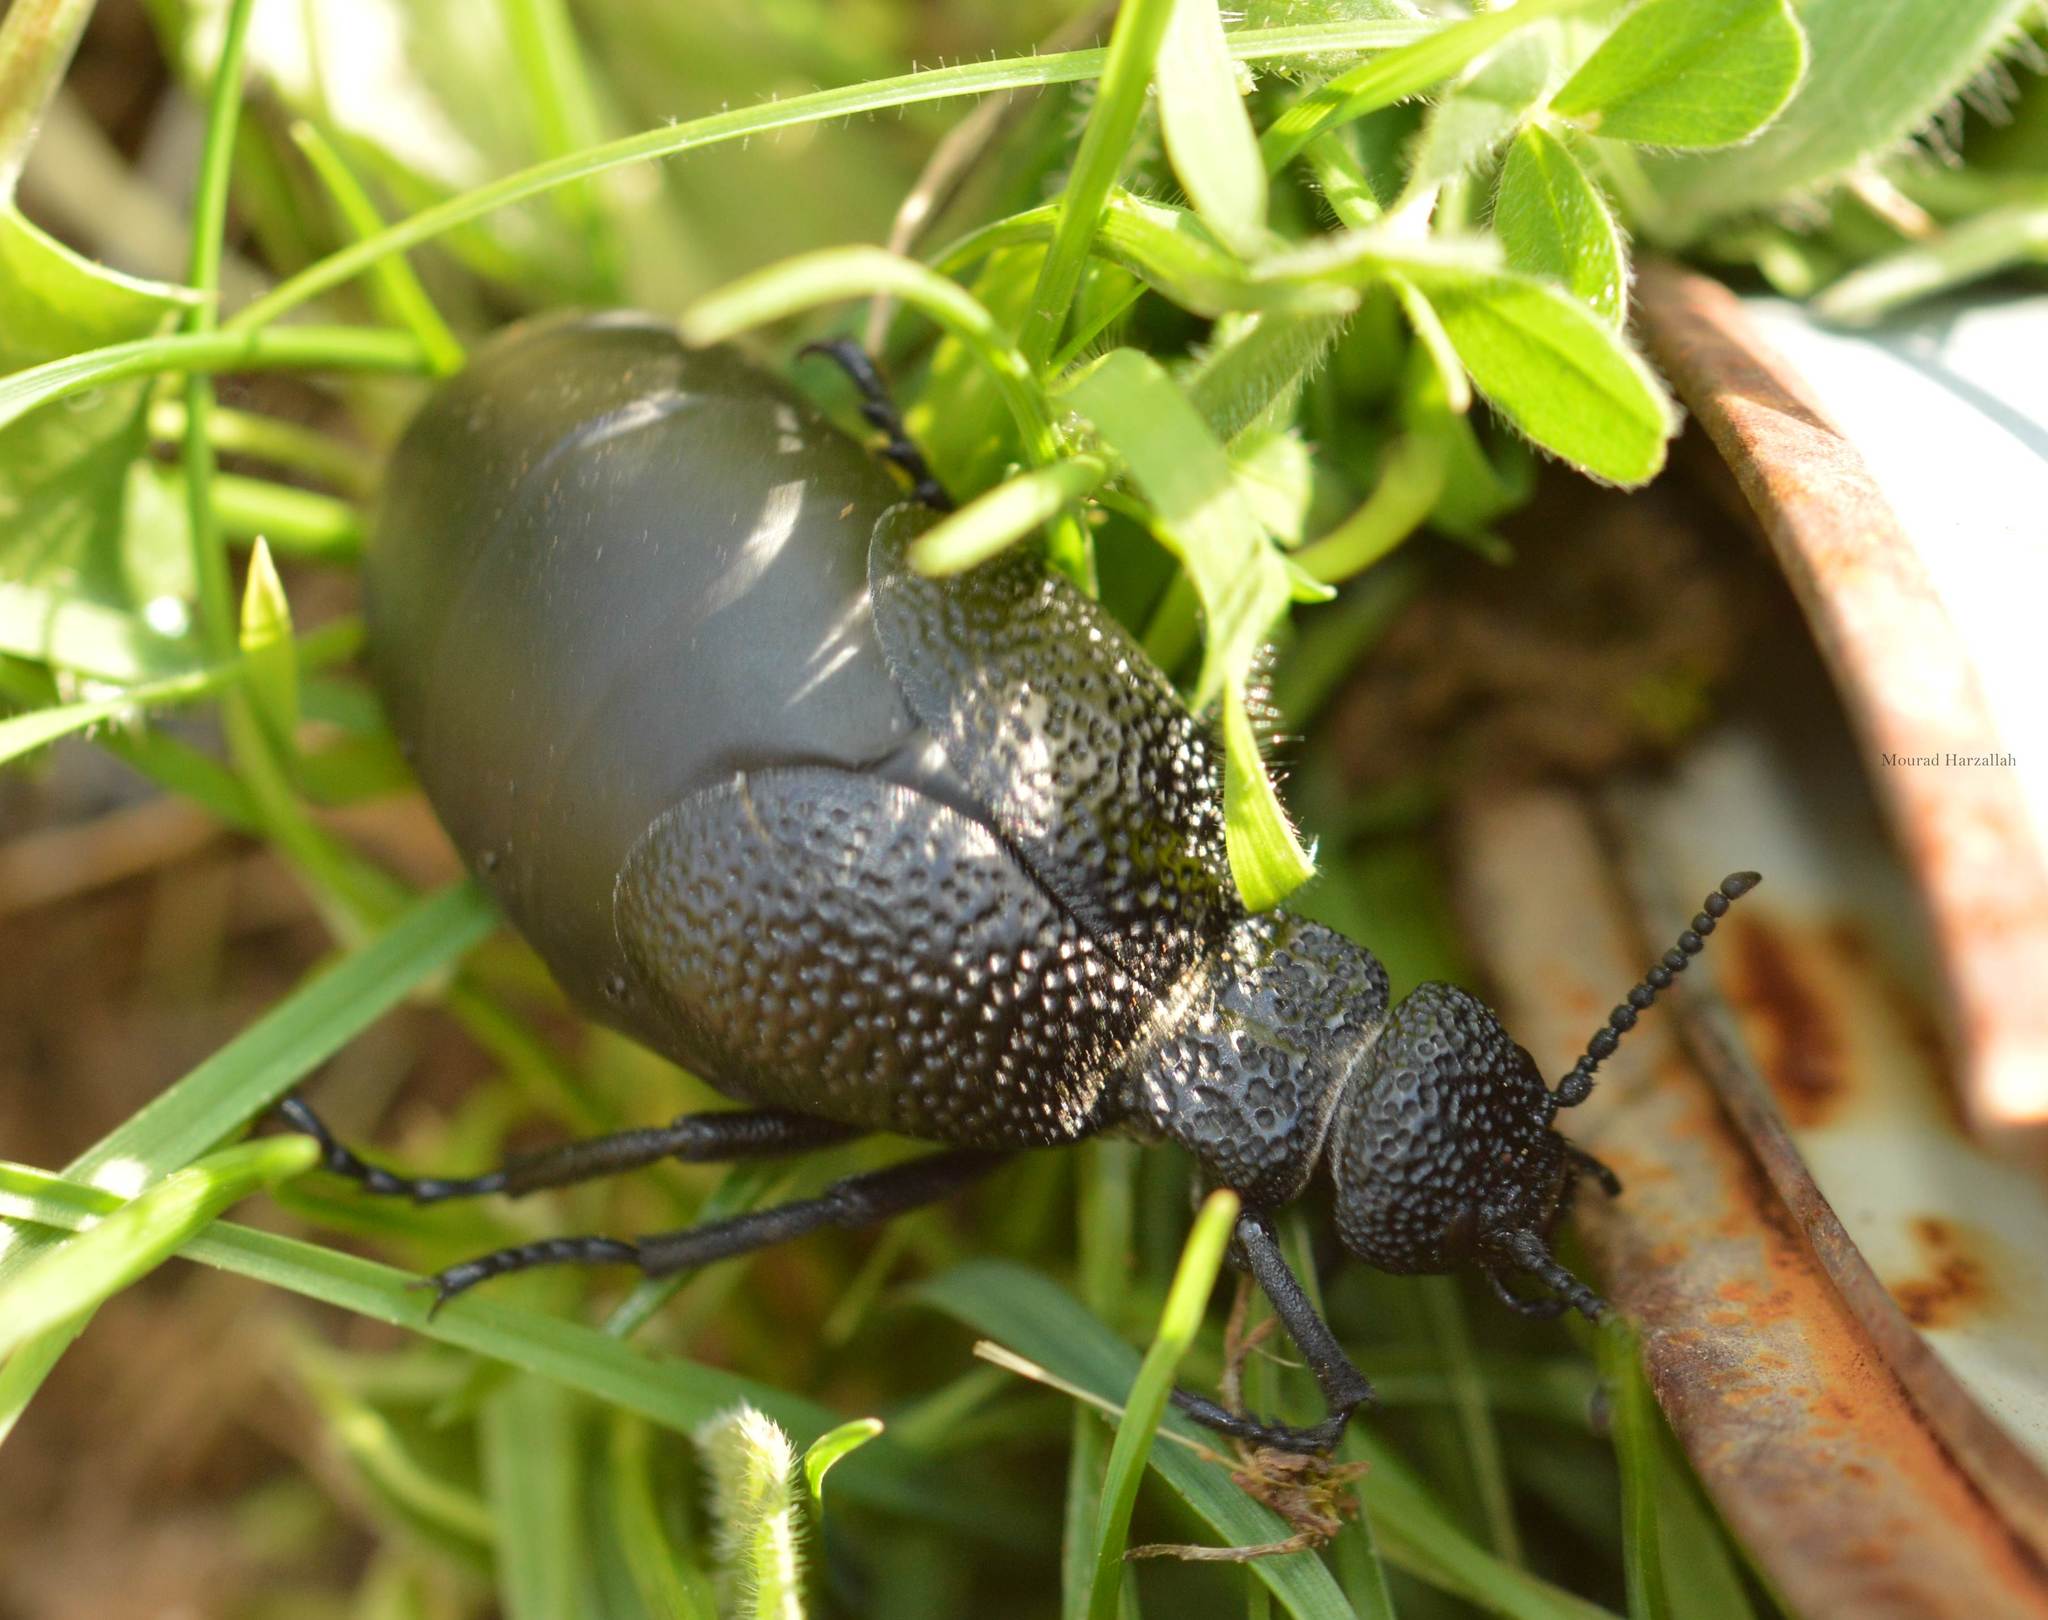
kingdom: Animalia
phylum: Arthropoda
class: Insecta
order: Coleoptera
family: Meloidae
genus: Meloe
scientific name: Meloe tuccius
